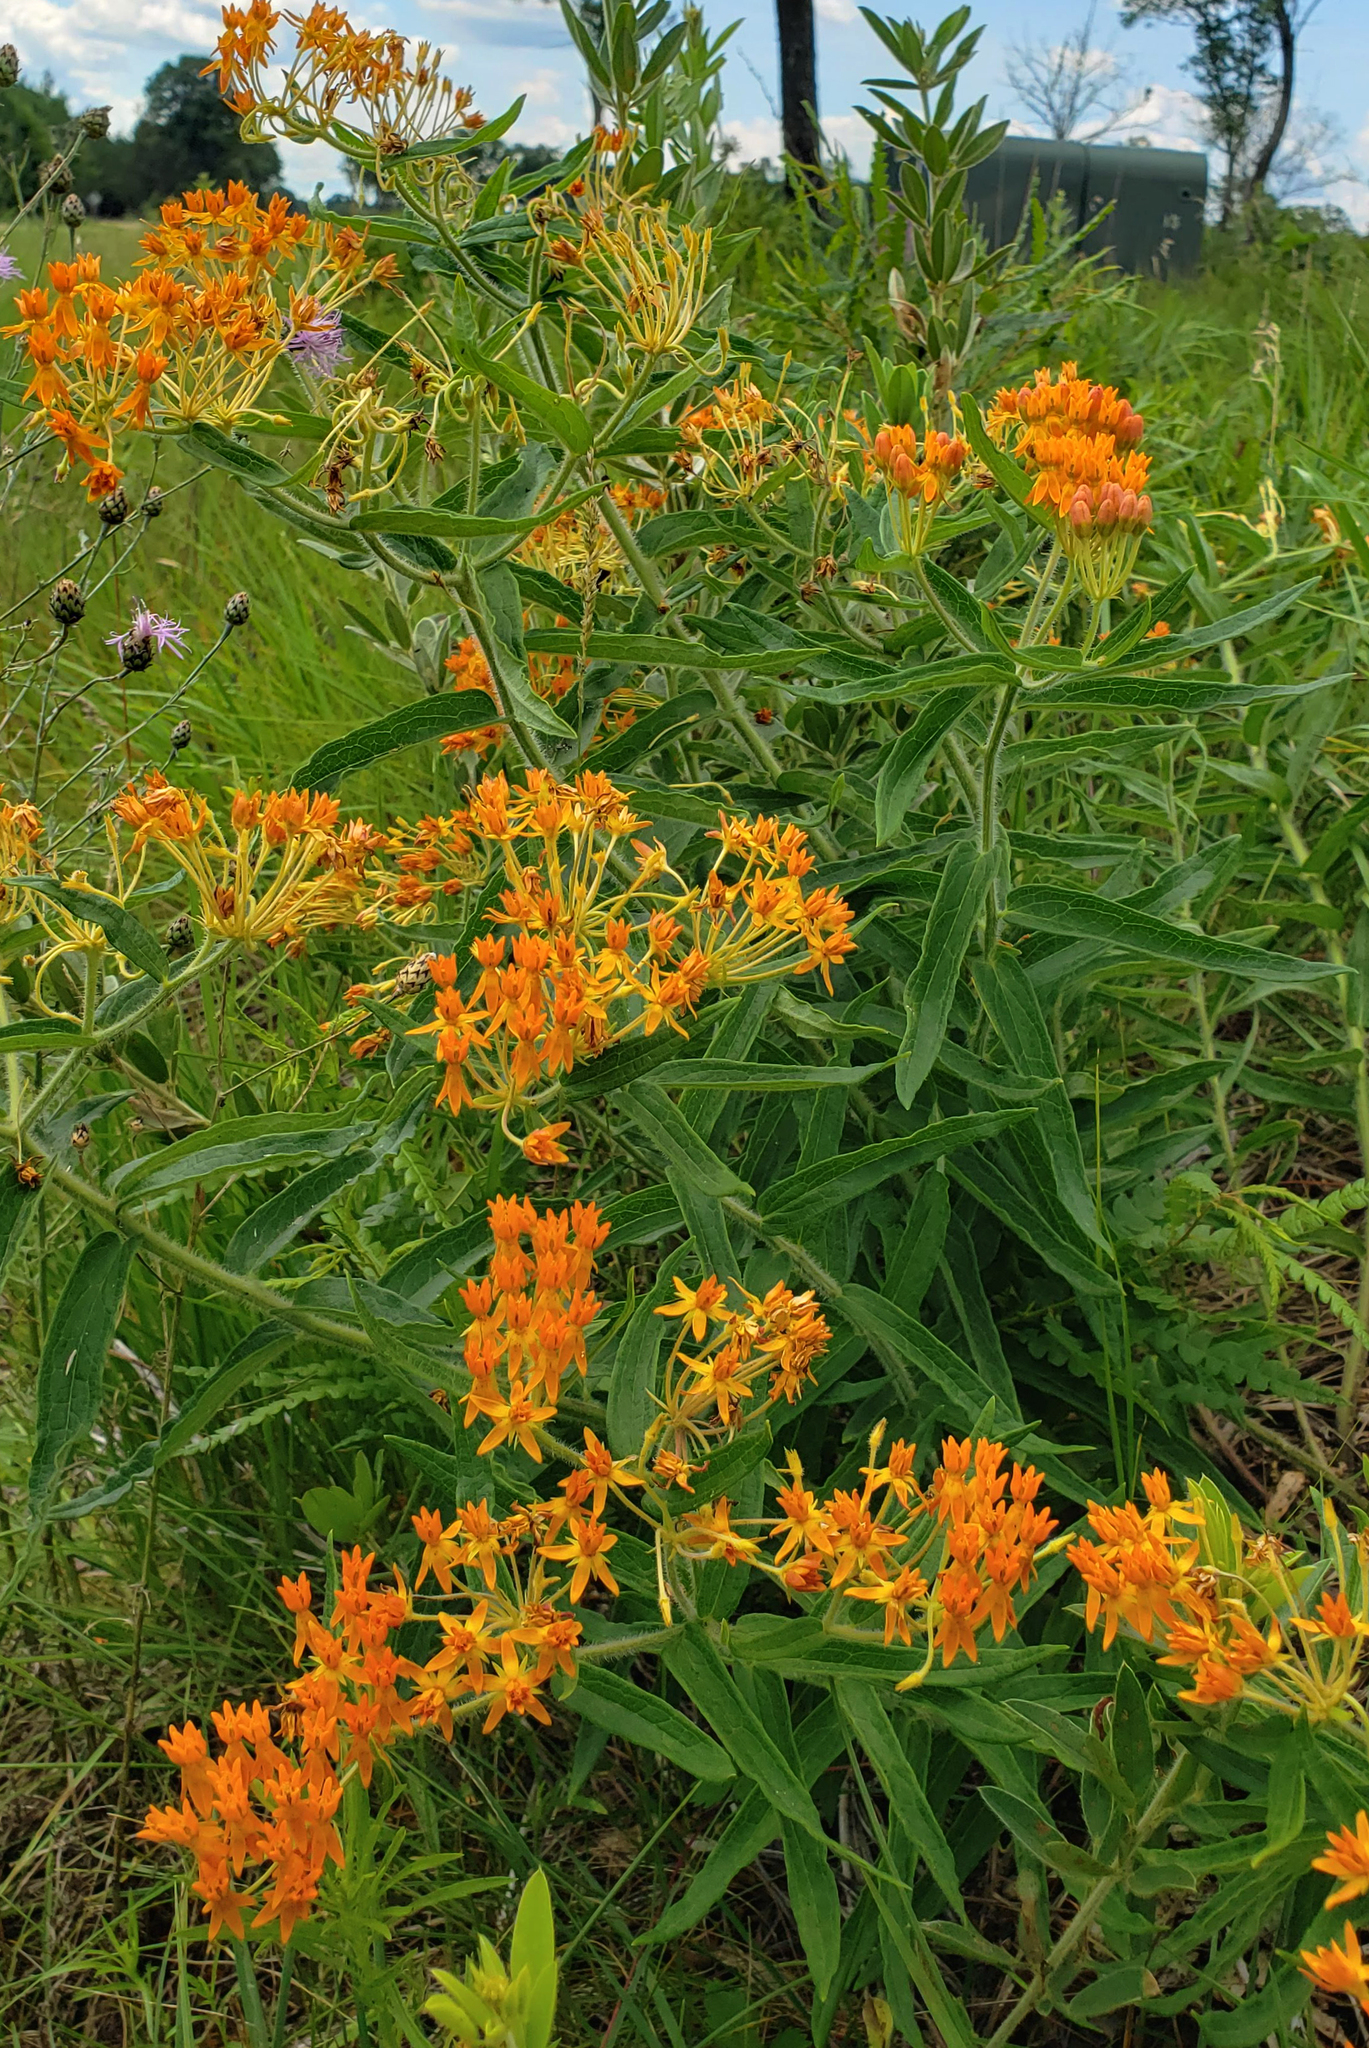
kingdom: Plantae
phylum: Tracheophyta
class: Magnoliopsida
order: Gentianales
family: Apocynaceae
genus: Asclepias
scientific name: Asclepias tuberosa
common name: Butterfly milkweed
